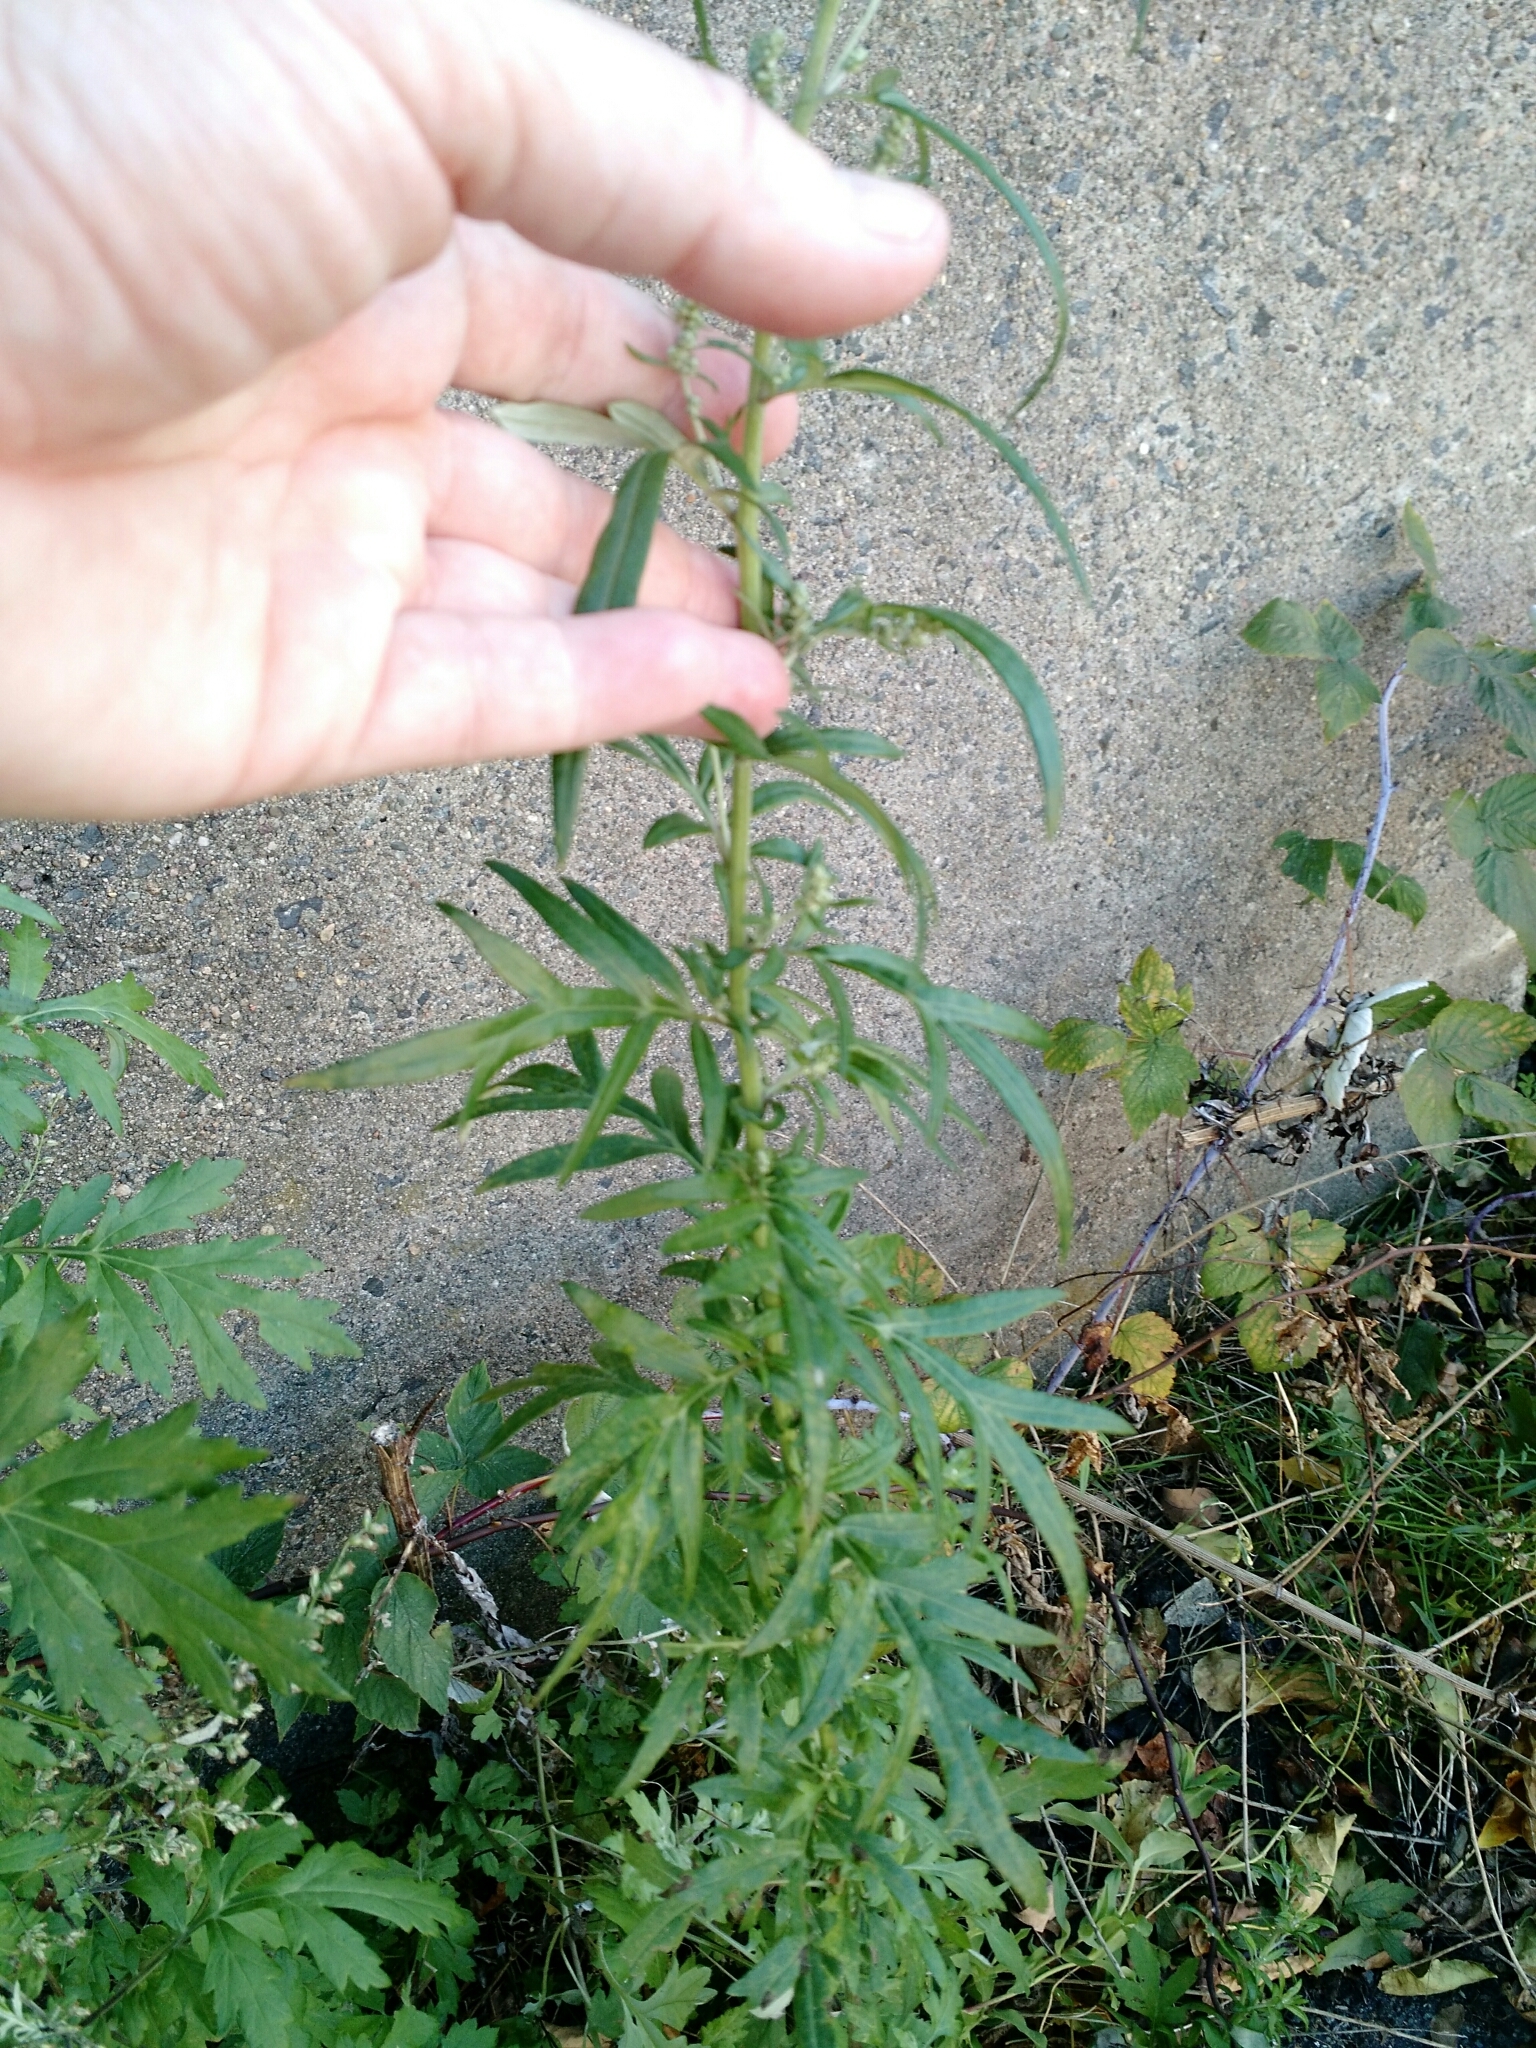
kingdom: Plantae
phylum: Tracheophyta
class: Magnoliopsida
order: Asterales
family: Asteraceae
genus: Artemisia
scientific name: Artemisia vulgaris
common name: Mugwort
